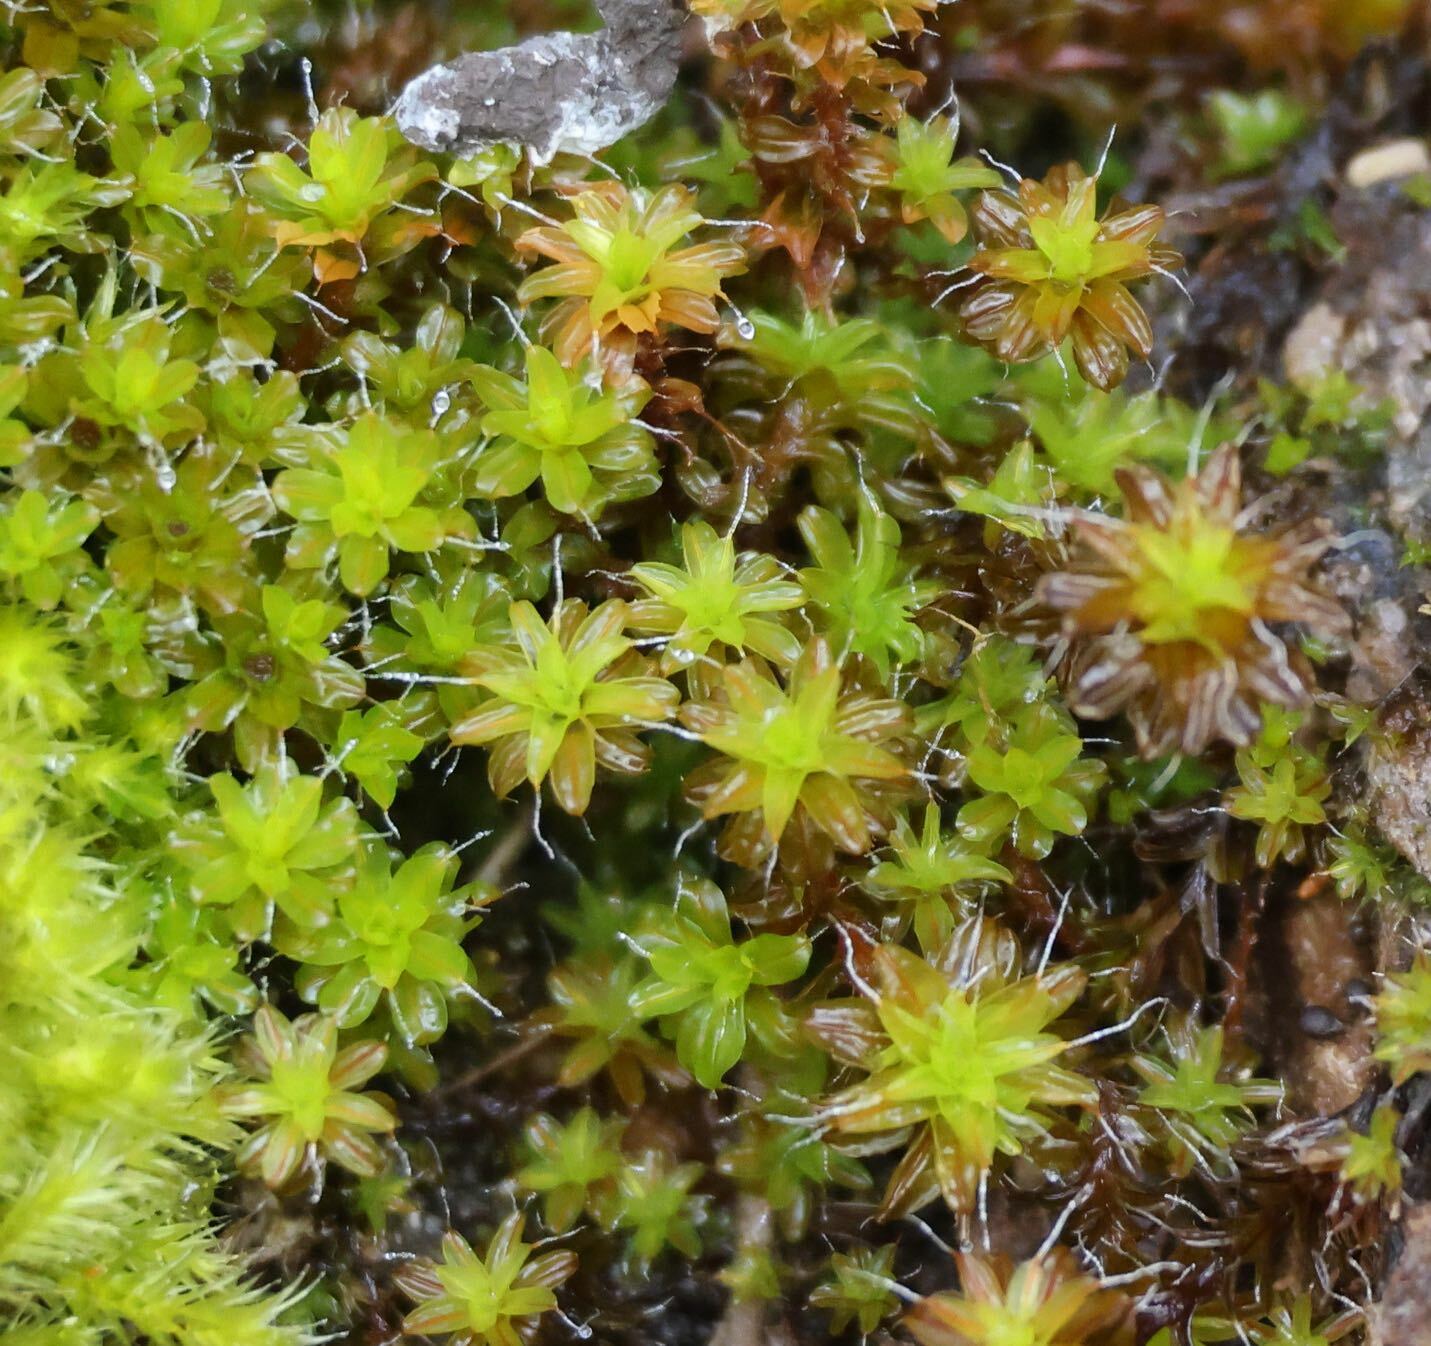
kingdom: Plantae
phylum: Bryophyta
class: Bryopsida
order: Pottiales
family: Pottiaceae
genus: Syntrichia
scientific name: Syntrichia ruralis
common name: Sidewalk screw moss
